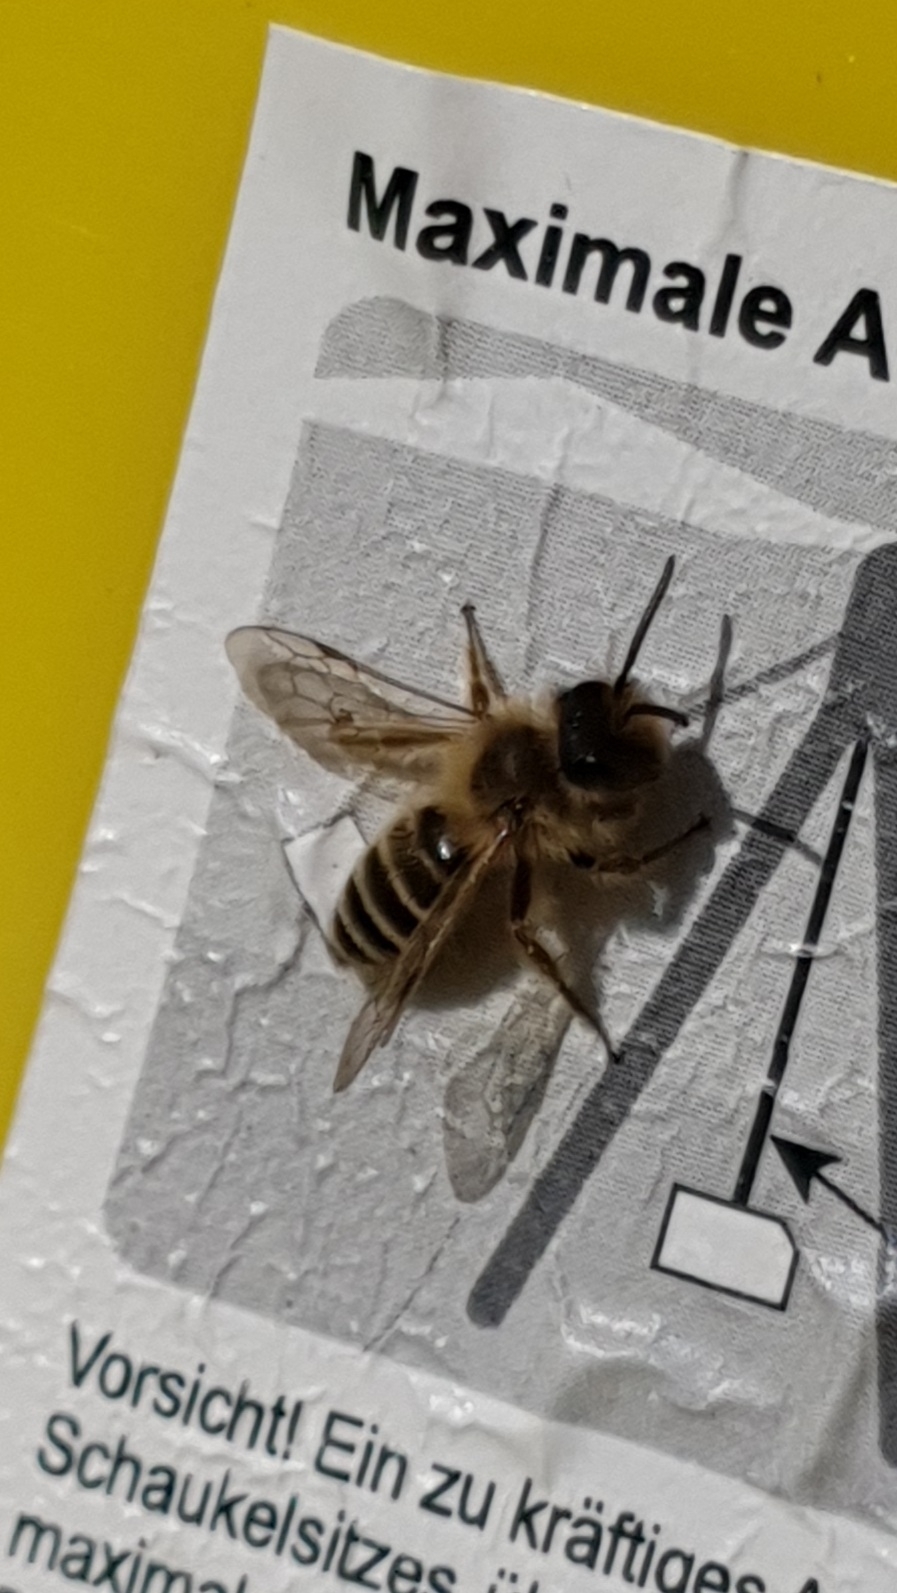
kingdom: Animalia
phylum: Arthropoda
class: Insecta
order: Hymenoptera
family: Andrenidae
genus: Andrena
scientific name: Andrena flavipes
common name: Yellow-legged mining bee
